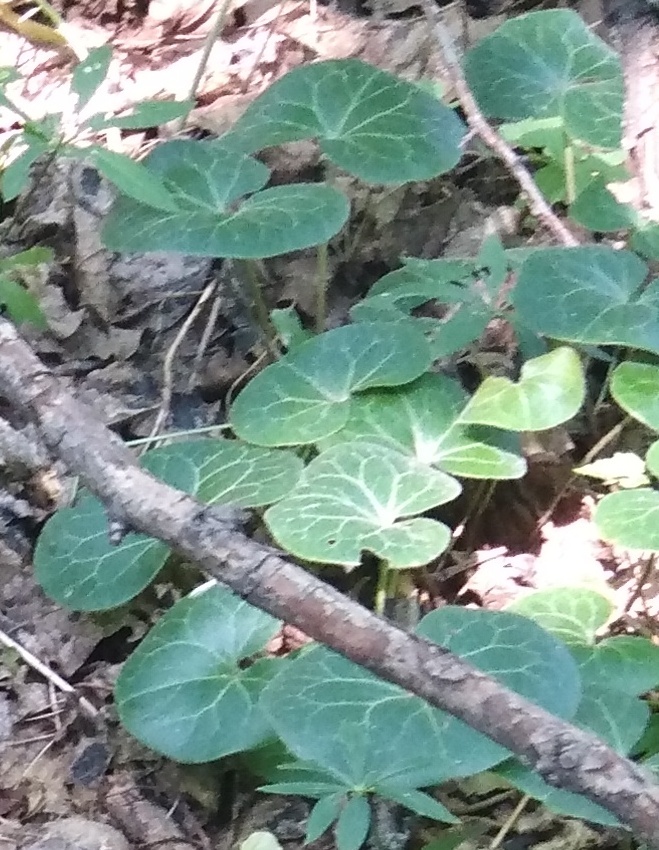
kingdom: Plantae
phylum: Tracheophyta
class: Magnoliopsida
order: Piperales
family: Aristolochiaceae
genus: Asarum
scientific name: Asarum europaeum
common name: Asarabacca
